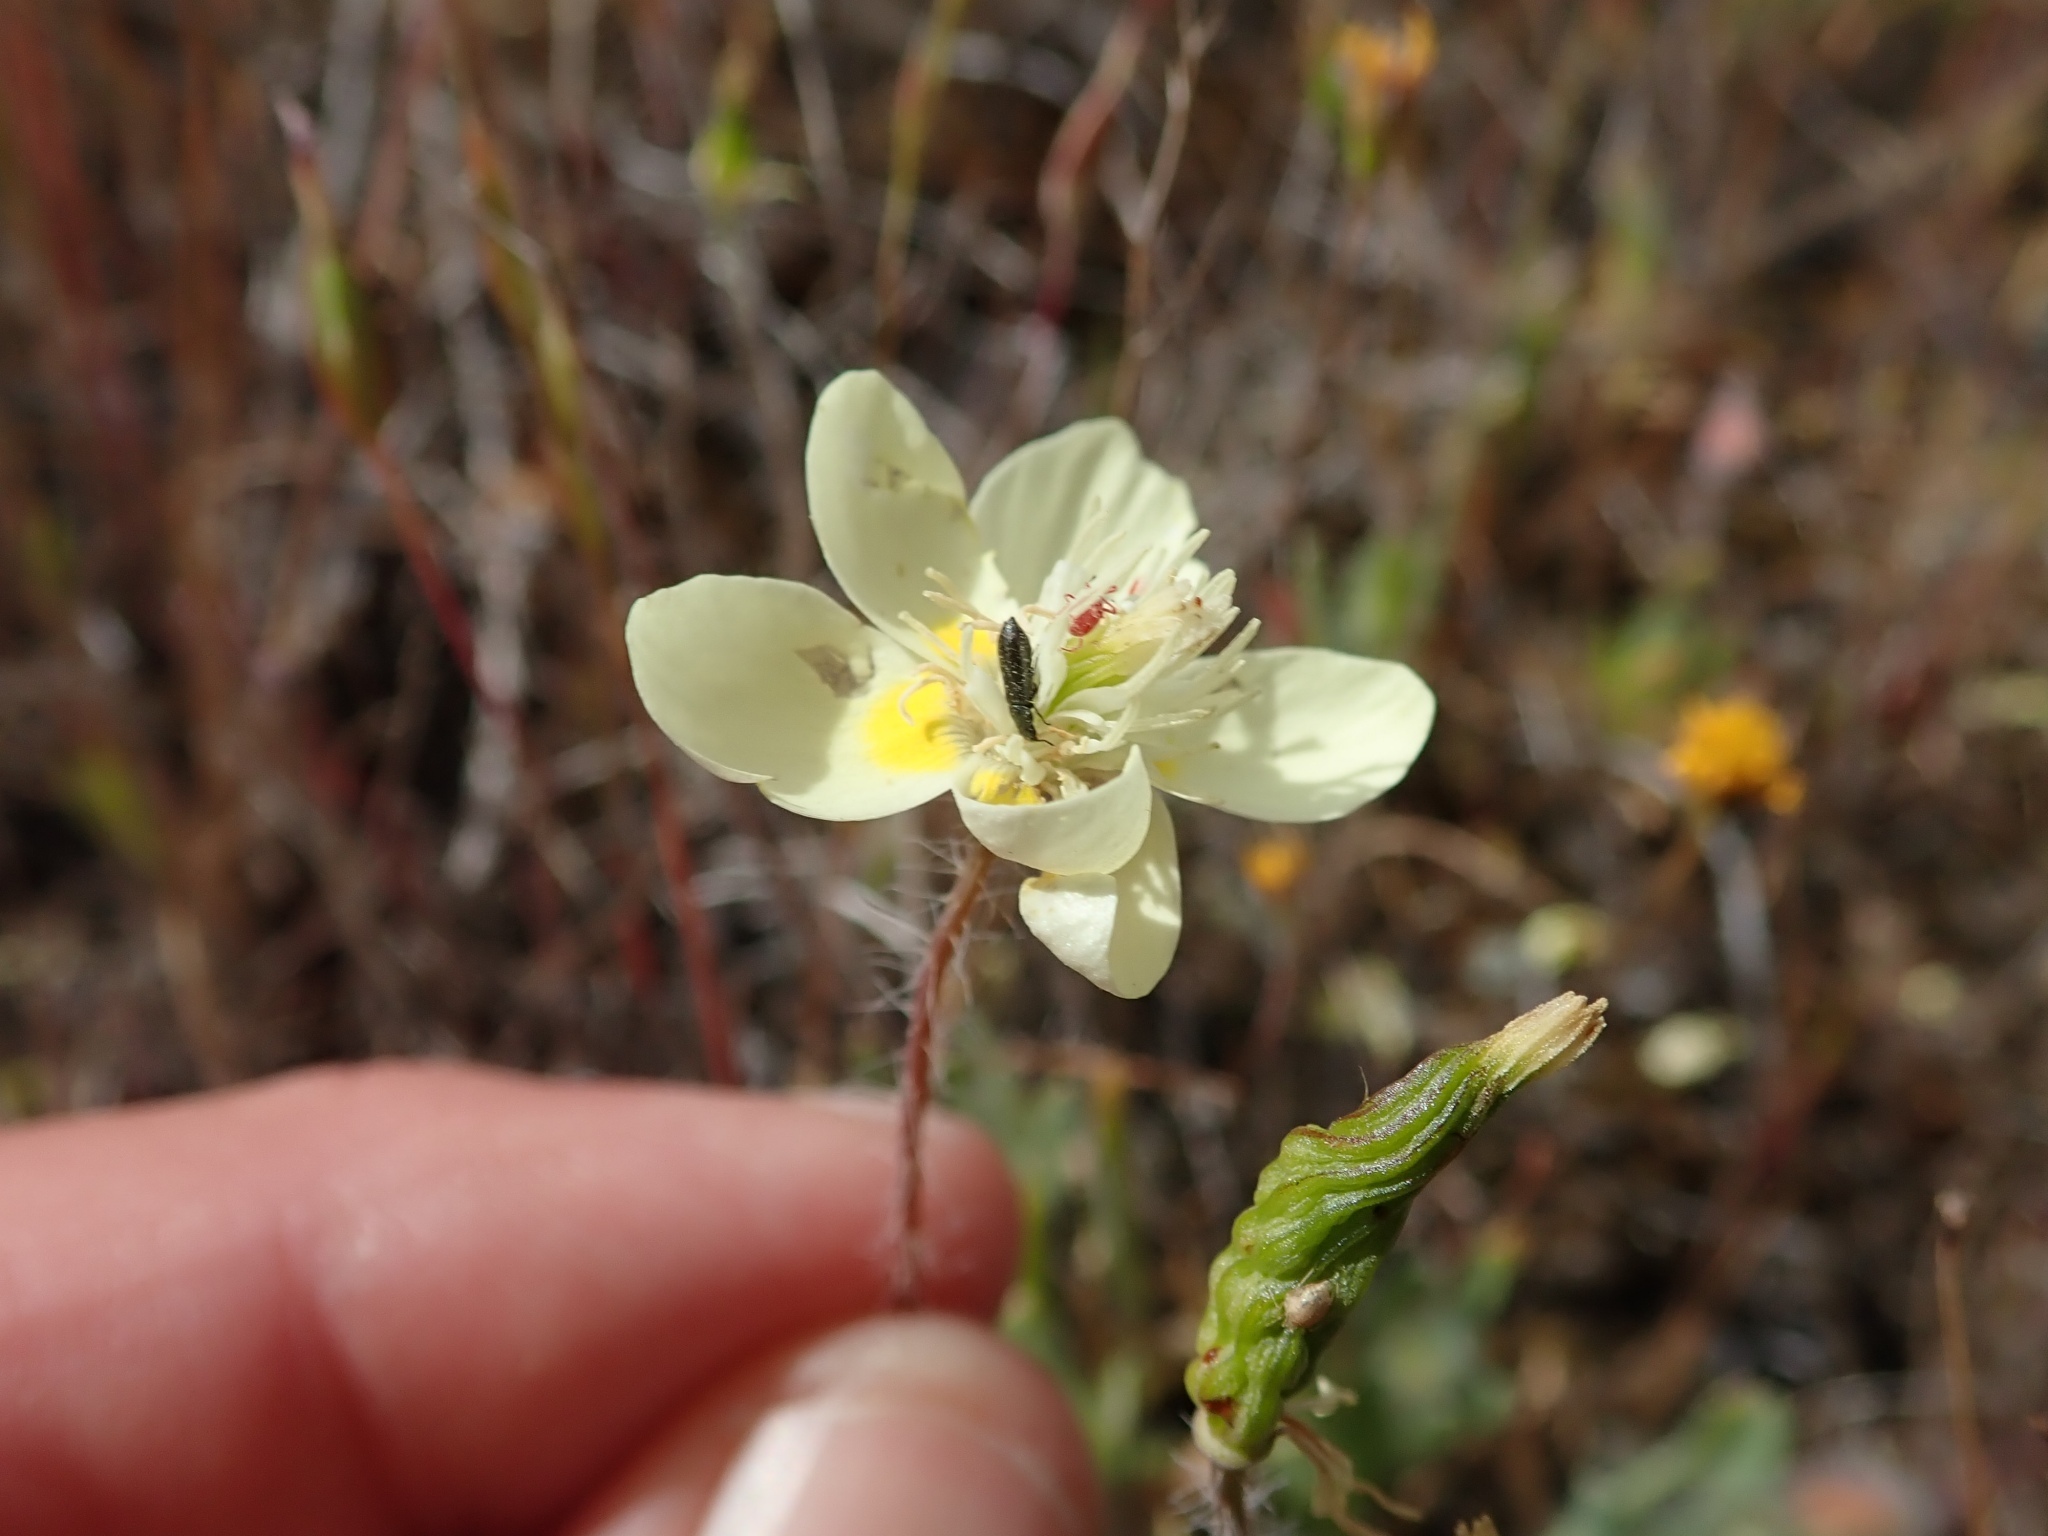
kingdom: Plantae
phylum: Tracheophyta
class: Magnoliopsida
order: Ranunculales
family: Papaveraceae
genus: Platystemon
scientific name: Platystemon californicus
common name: Cream-cups
